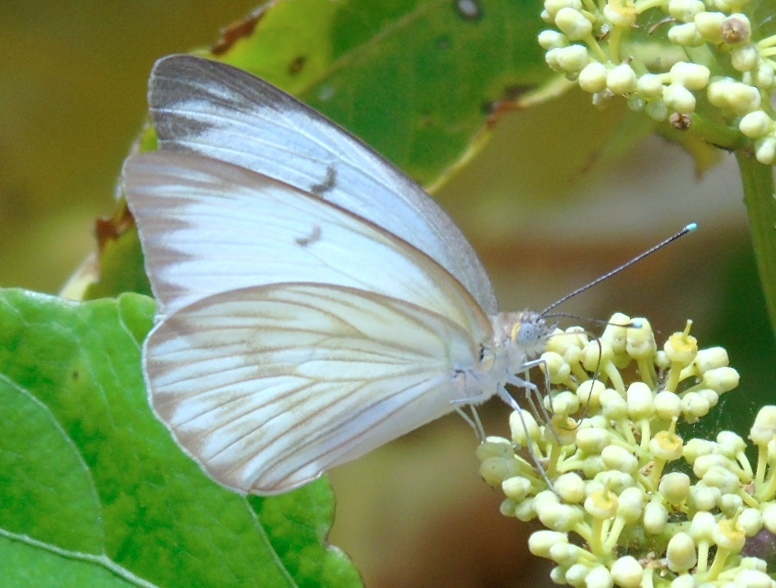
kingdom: Animalia
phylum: Arthropoda
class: Insecta
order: Lepidoptera
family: Pieridae
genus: Ascia
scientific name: Ascia monuste
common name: Great southern white
